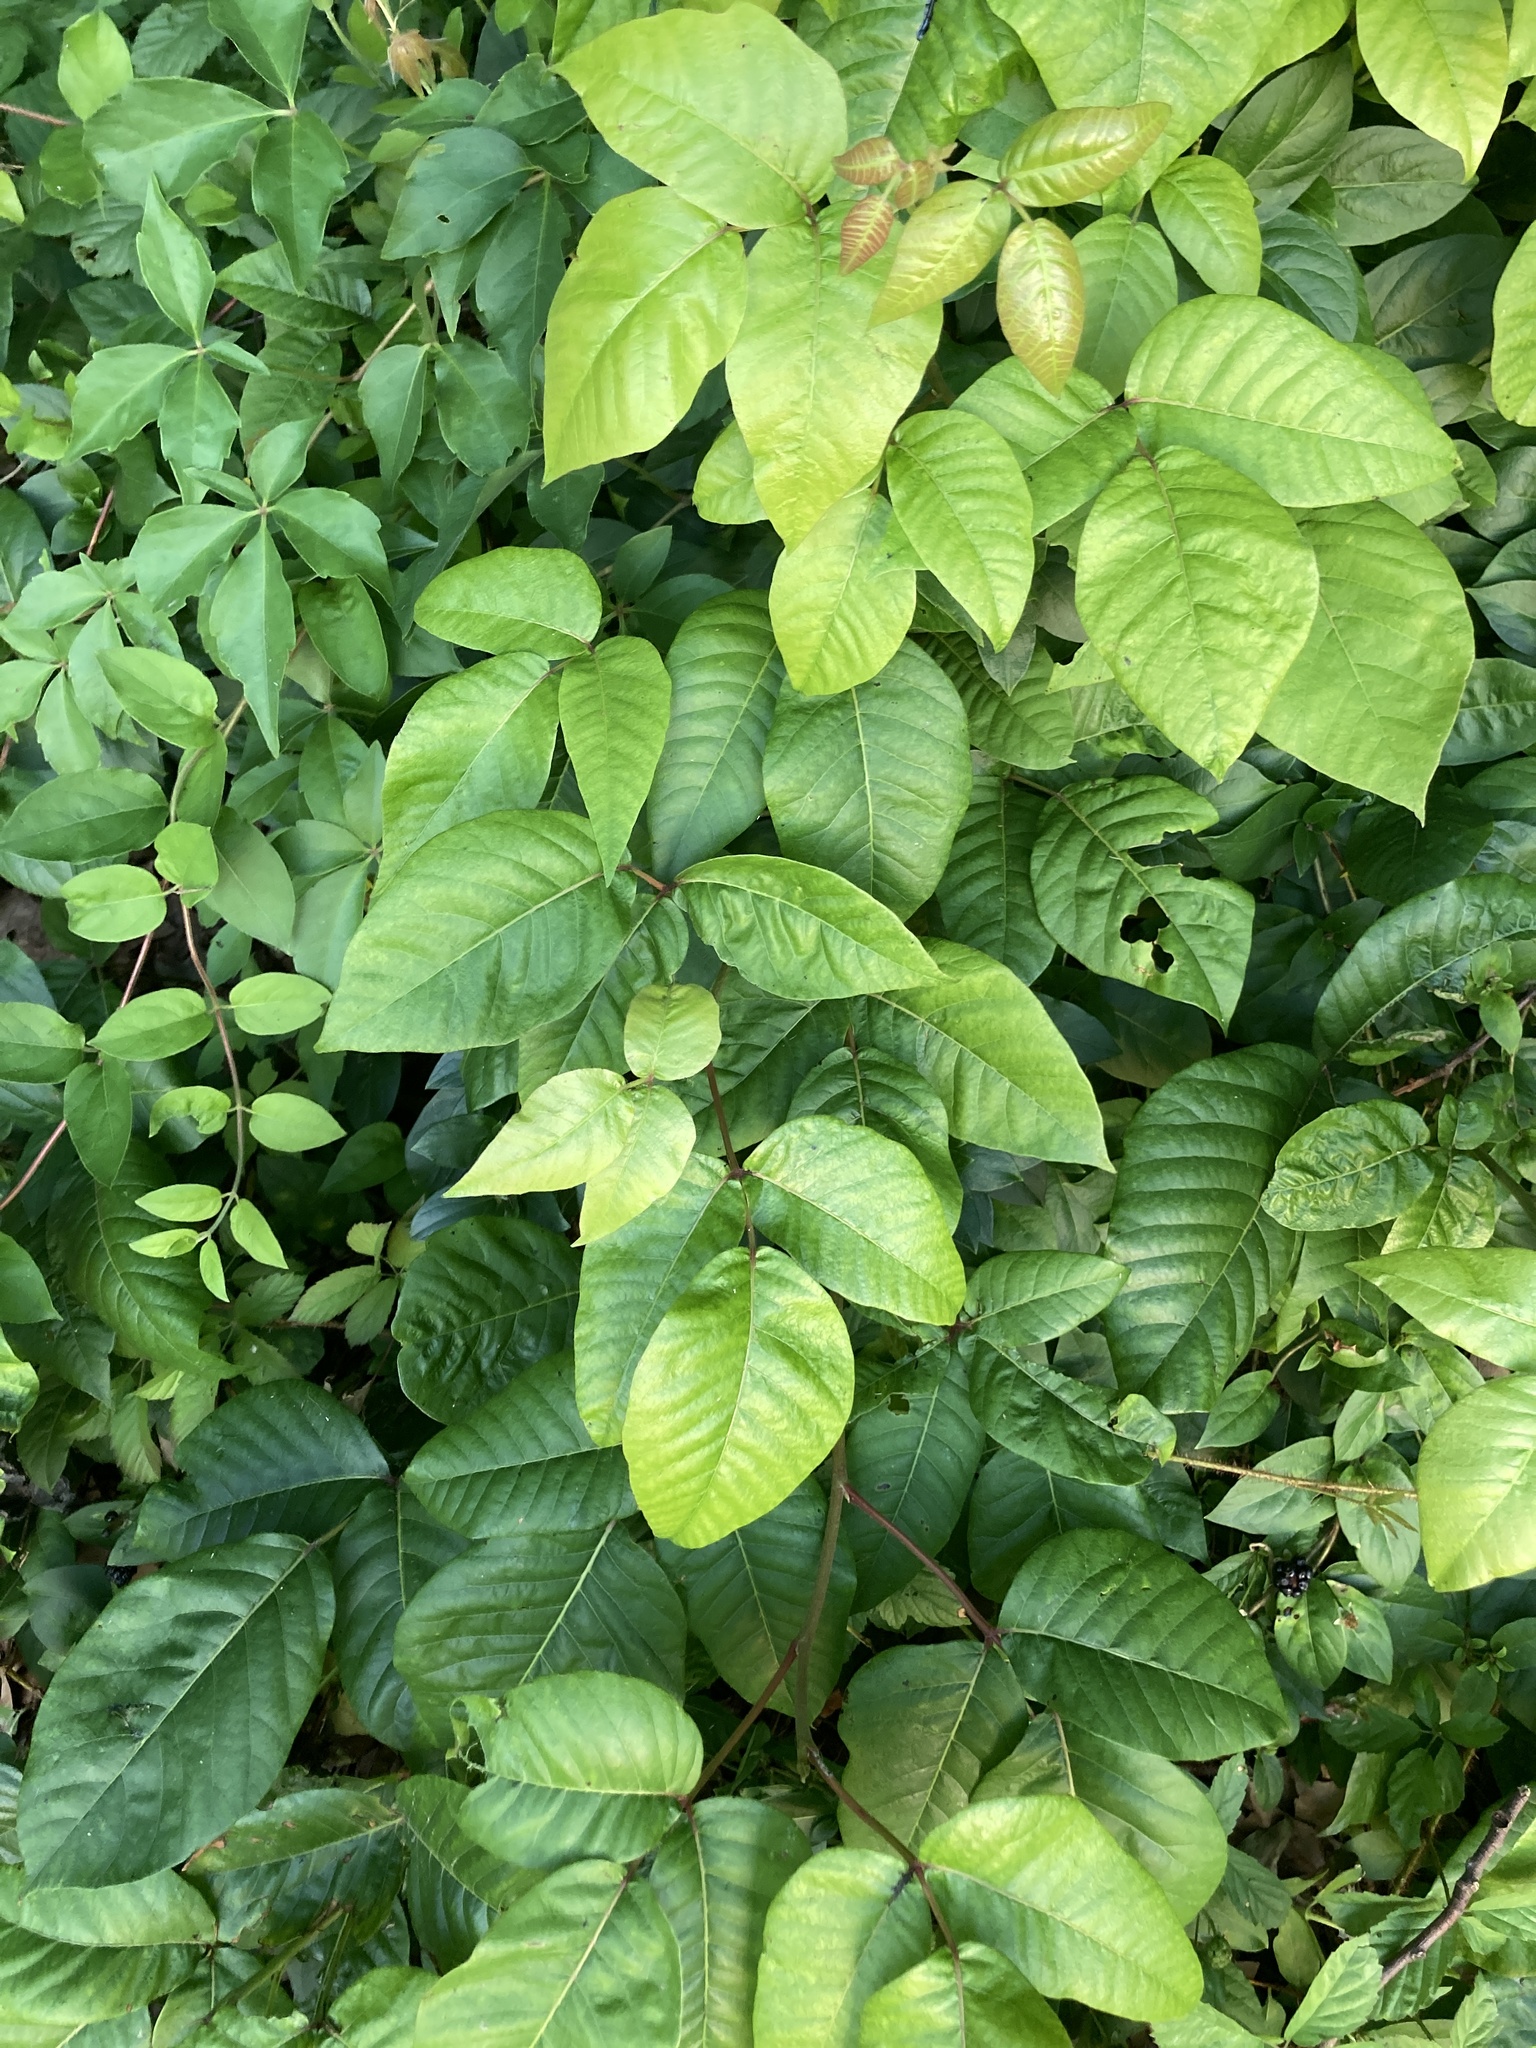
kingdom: Plantae
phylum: Tracheophyta
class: Magnoliopsida
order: Sapindales
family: Anacardiaceae
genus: Toxicodendron
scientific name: Toxicodendron radicans
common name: Poison ivy
